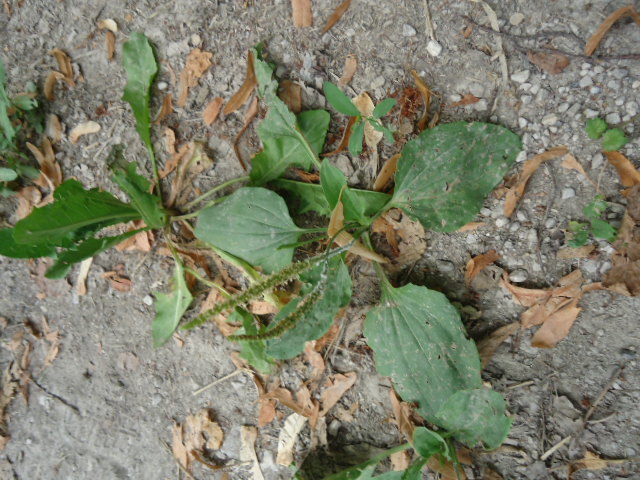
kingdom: Plantae
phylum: Tracheophyta
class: Magnoliopsida
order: Lamiales
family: Plantaginaceae
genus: Plantago
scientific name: Plantago major
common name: Common plantain
